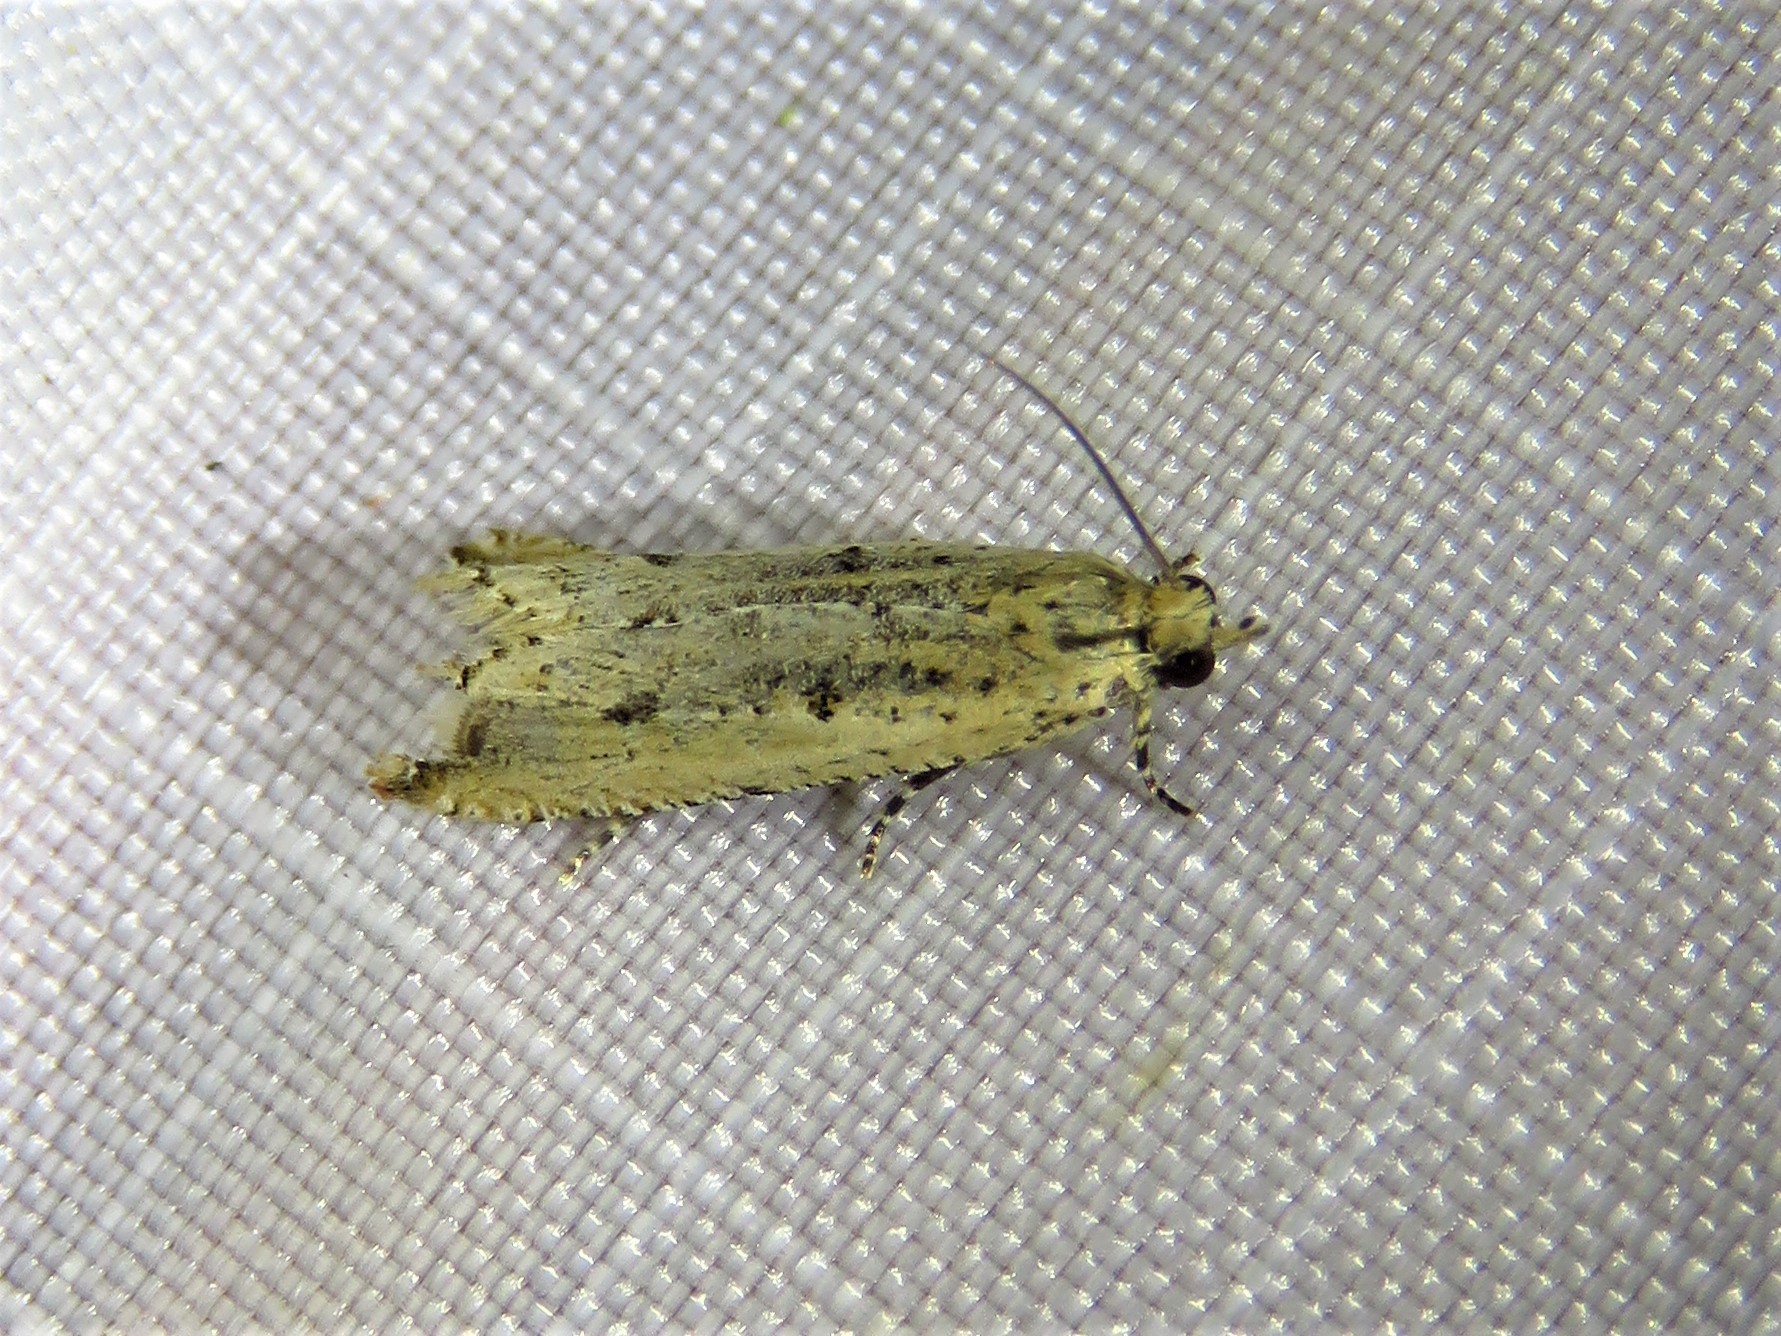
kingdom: Animalia
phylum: Arthropoda
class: Insecta
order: Lepidoptera
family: Tortricidae
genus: Bactra
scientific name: Bactra verutana
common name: Javelin moth
